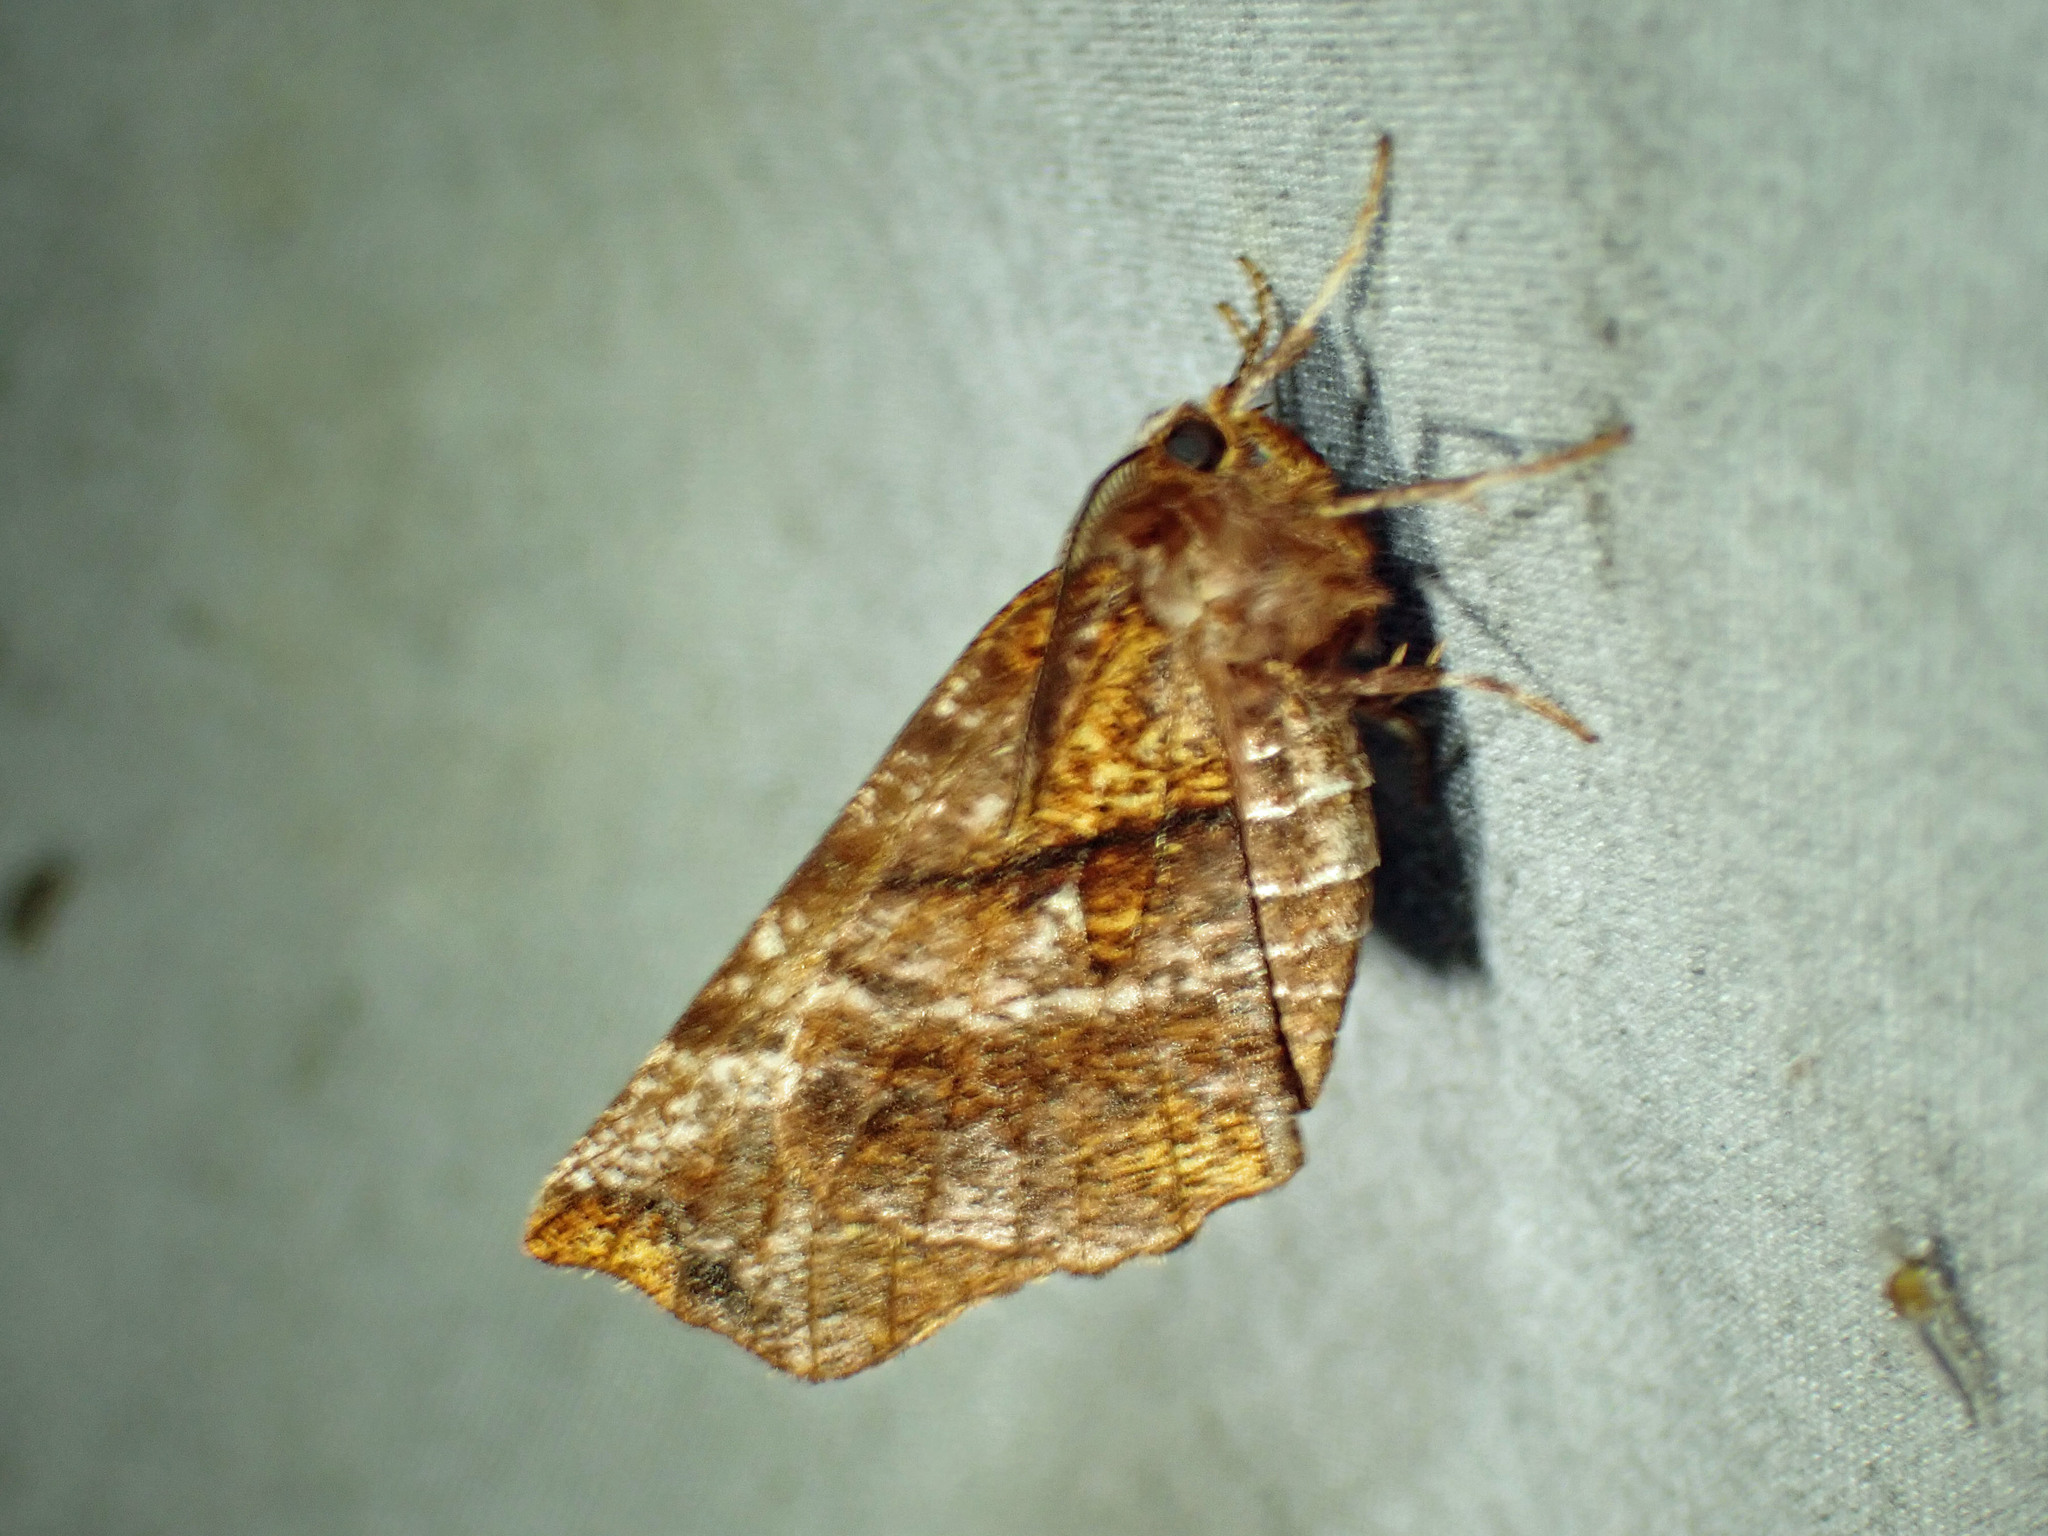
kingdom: Animalia
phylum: Arthropoda
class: Insecta
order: Lepidoptera
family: Geometridae
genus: Selenia
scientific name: Selenia alciphearia
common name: Brown-tipped thorn
